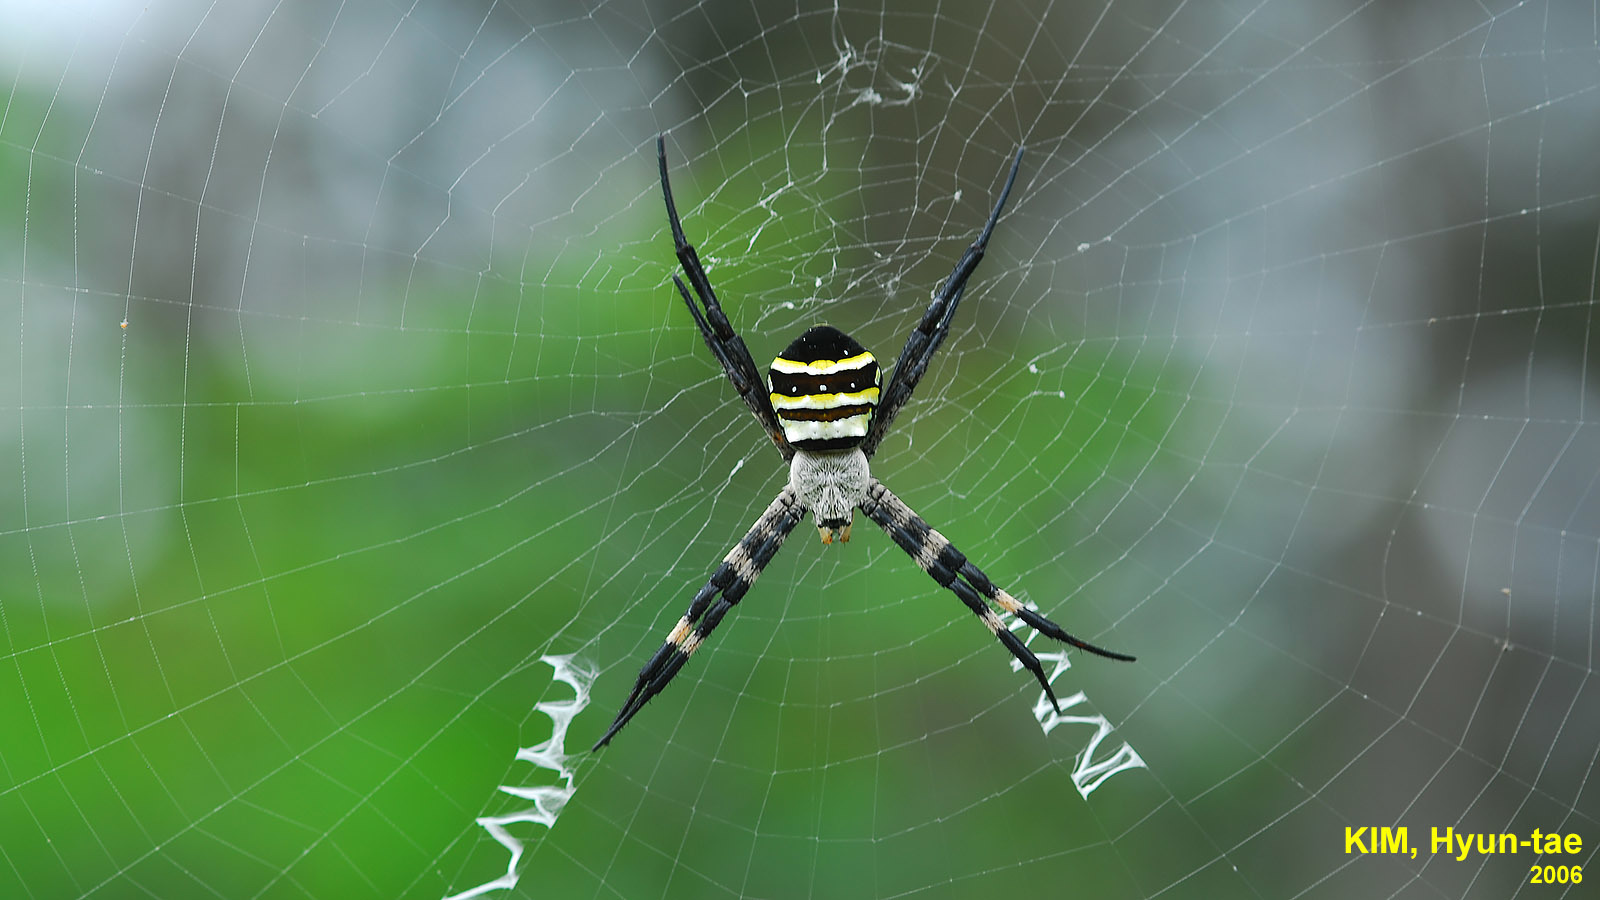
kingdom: Animalia
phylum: Arthropoda
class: Arachnida
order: Araneae
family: Araneidae
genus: Argiope
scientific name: Argiope amoena
